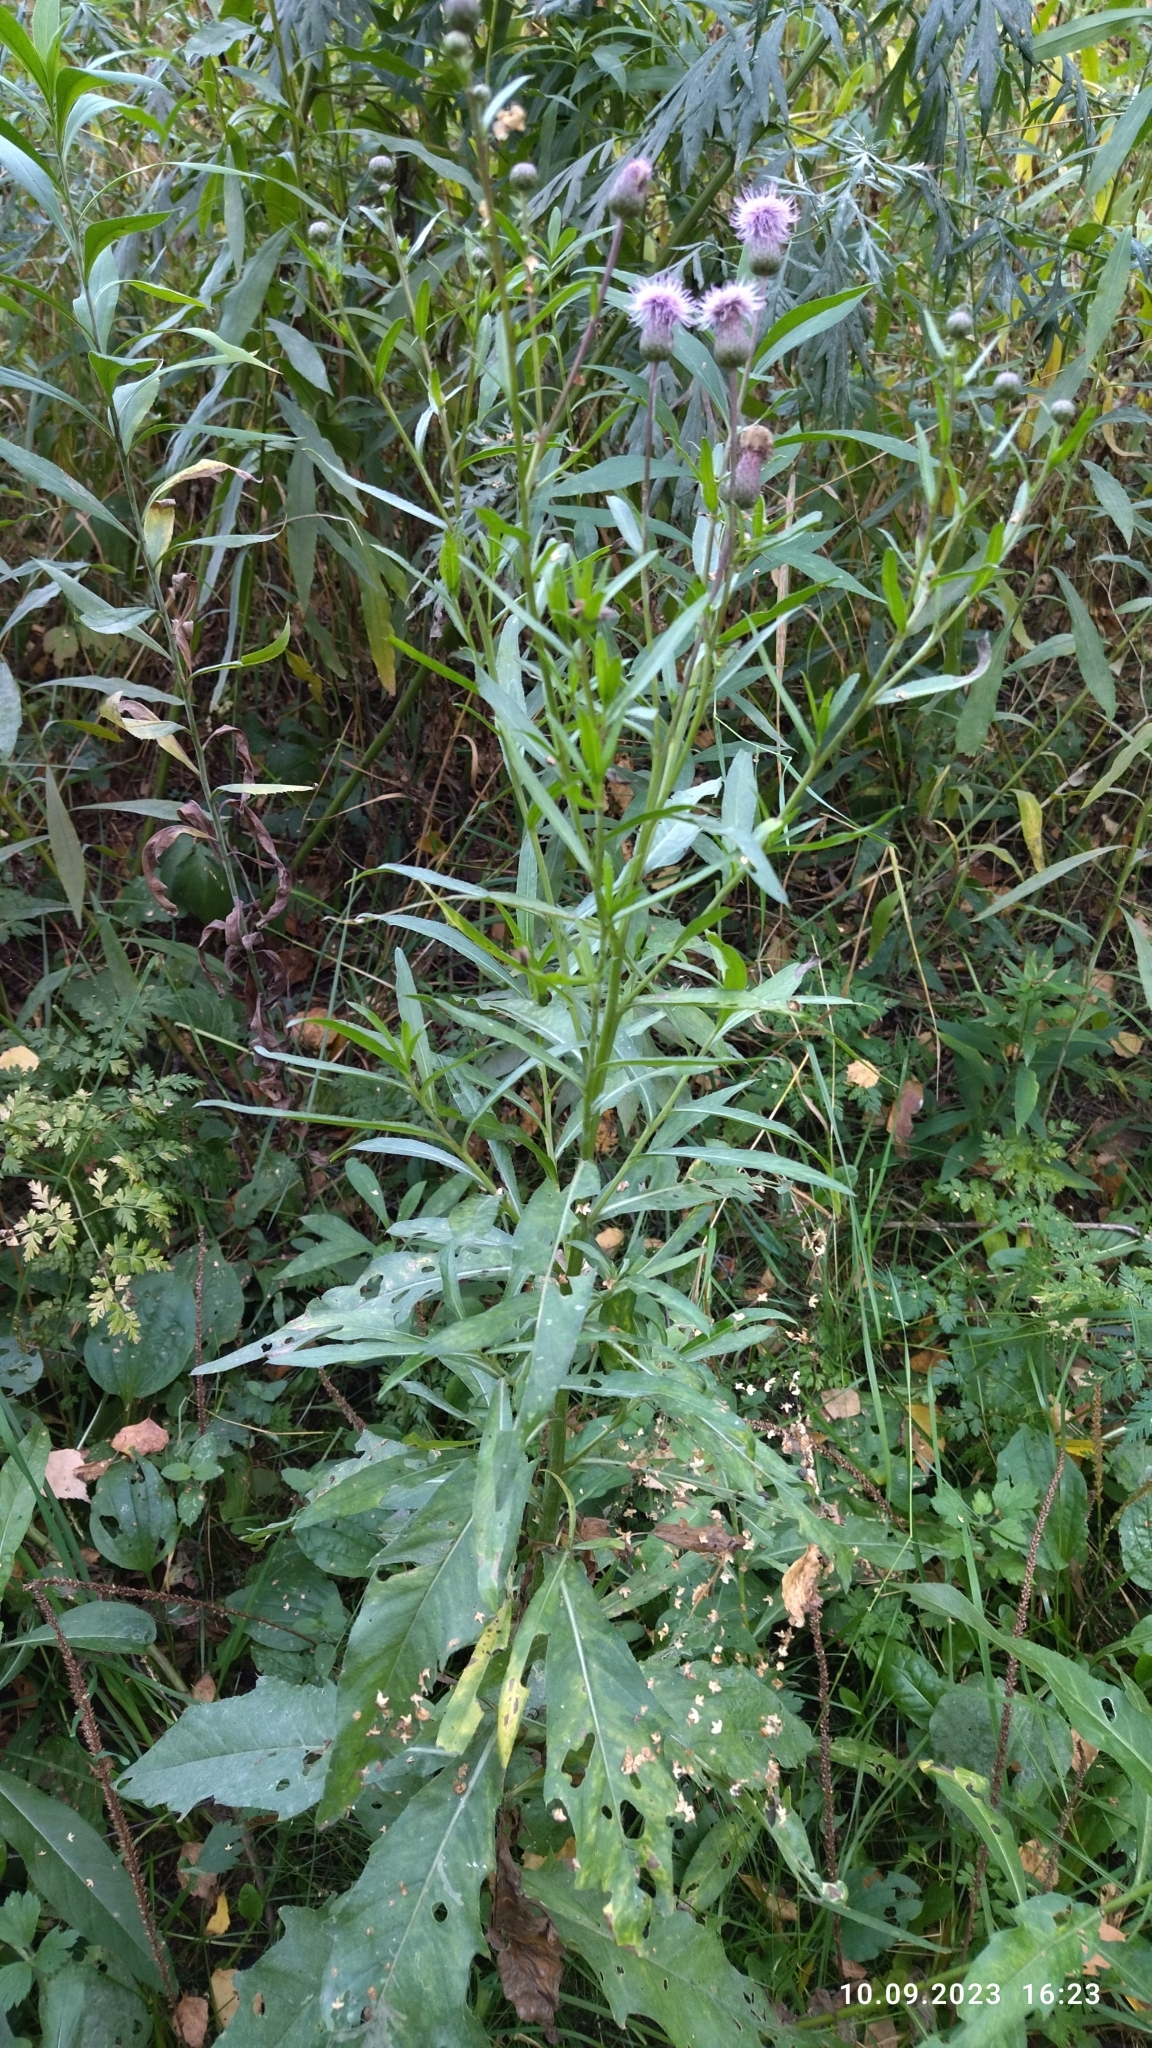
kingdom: Plantae
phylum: Tracheophyta
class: Magnoliopsida
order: Asterales
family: Asteraceae
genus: Cirsium
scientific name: Cirsium arvense
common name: Creeping thistle
